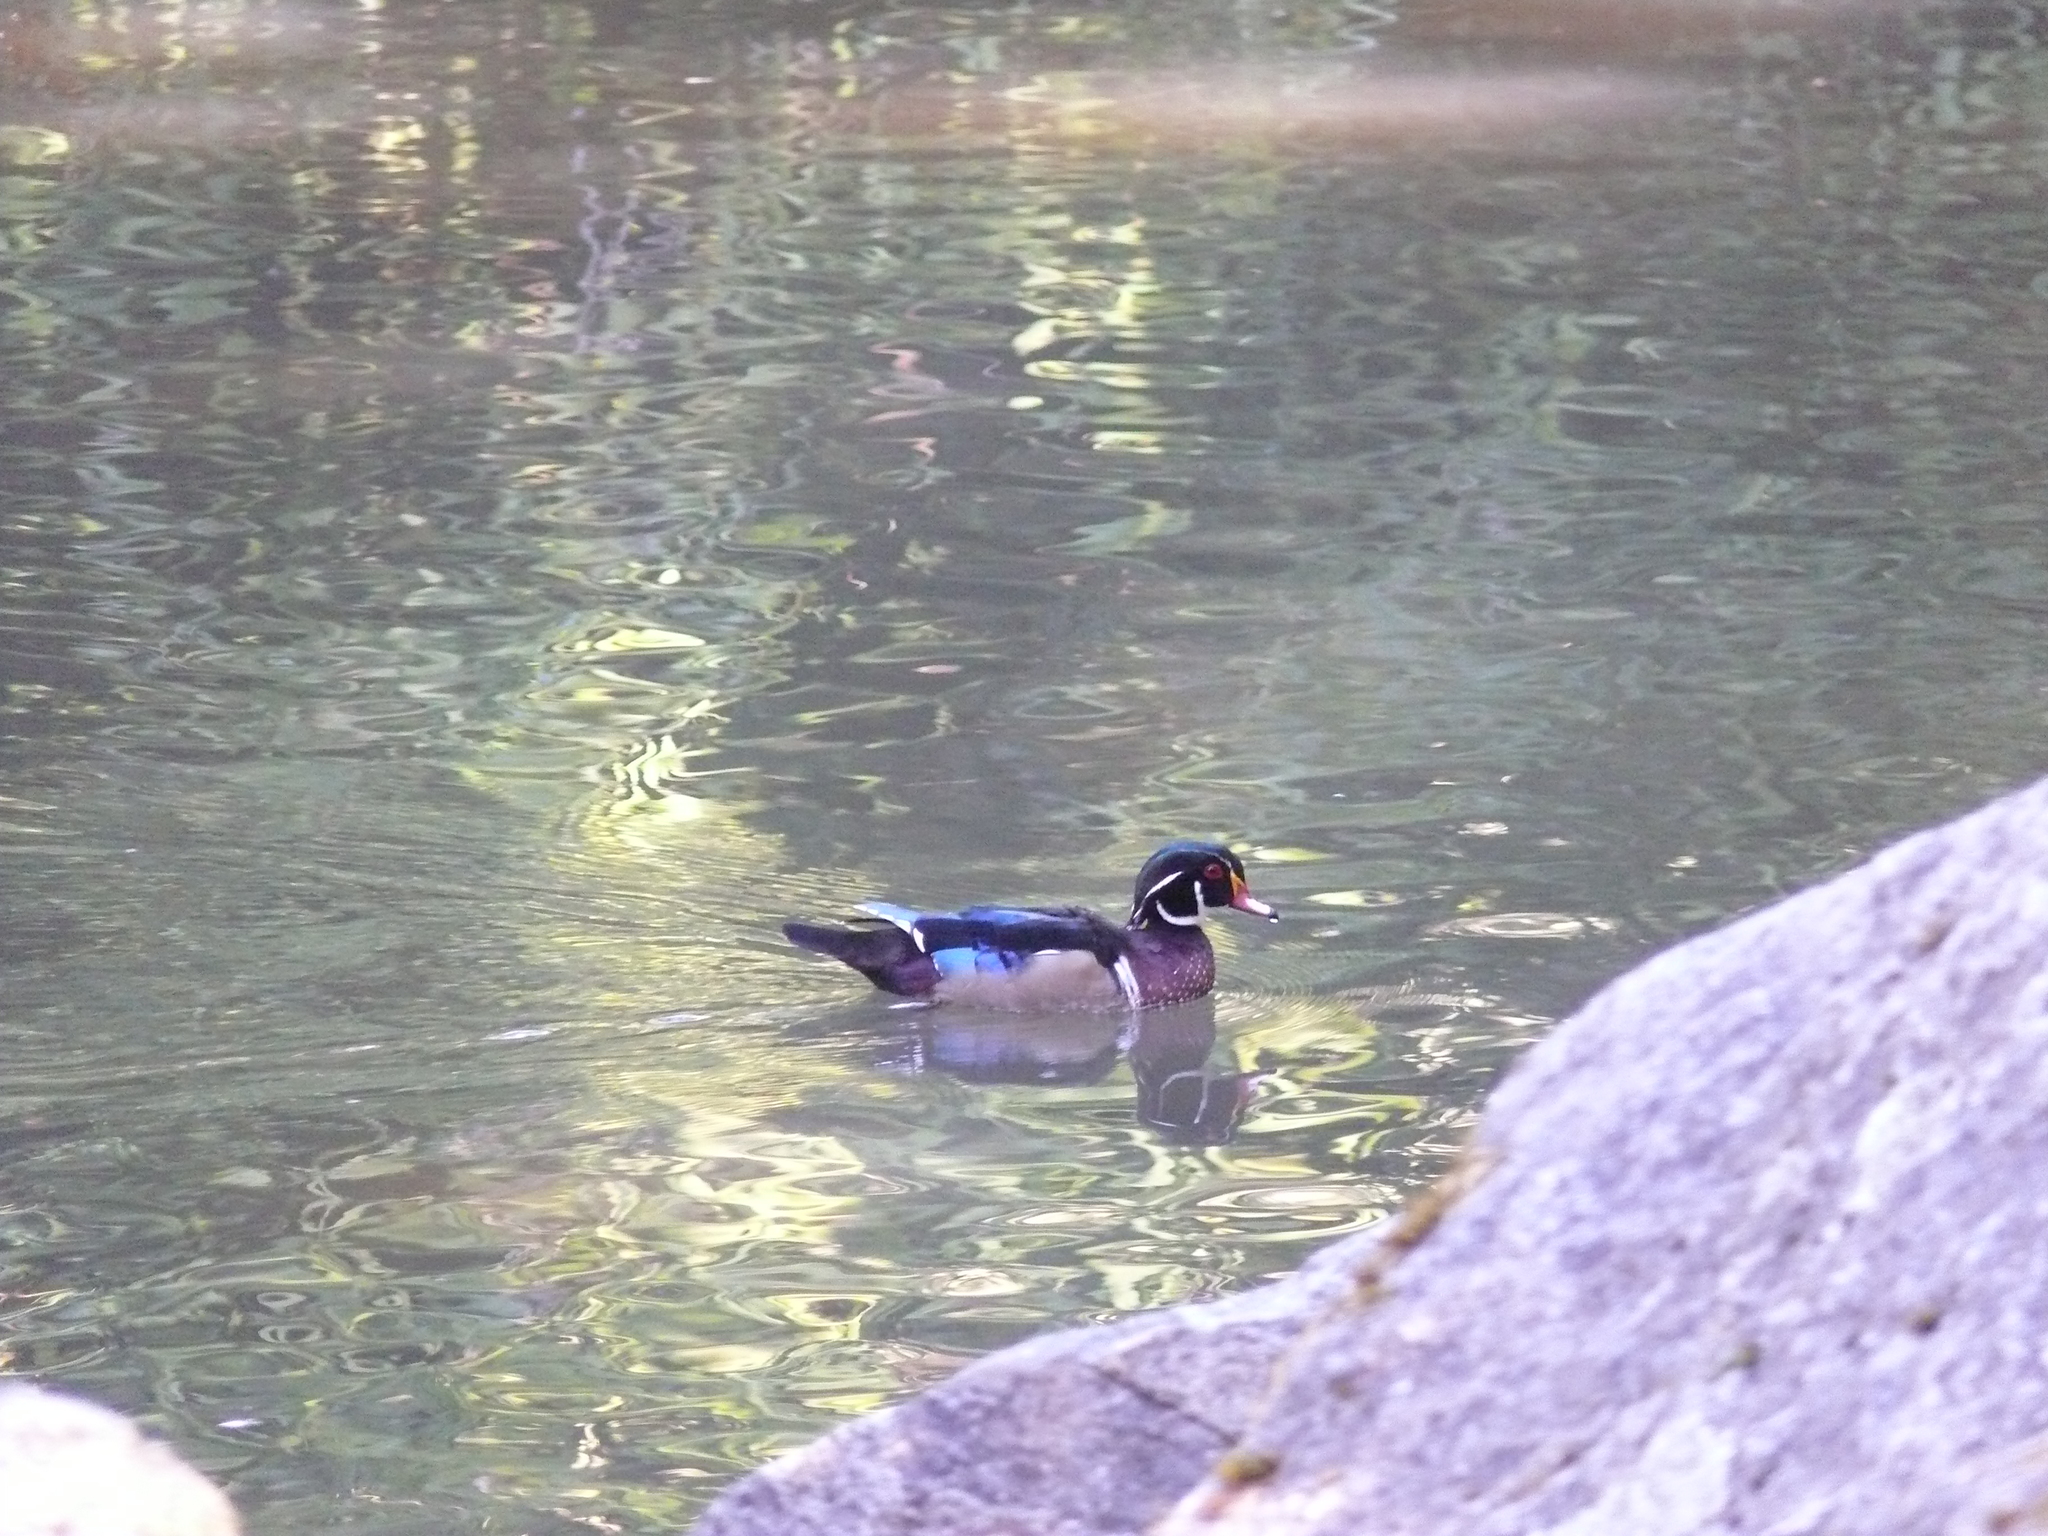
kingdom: Animalia
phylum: Chordata
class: Aves
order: Anseriformes
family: Anatidae
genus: Aix
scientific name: Aix sponsa
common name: Wood duck
